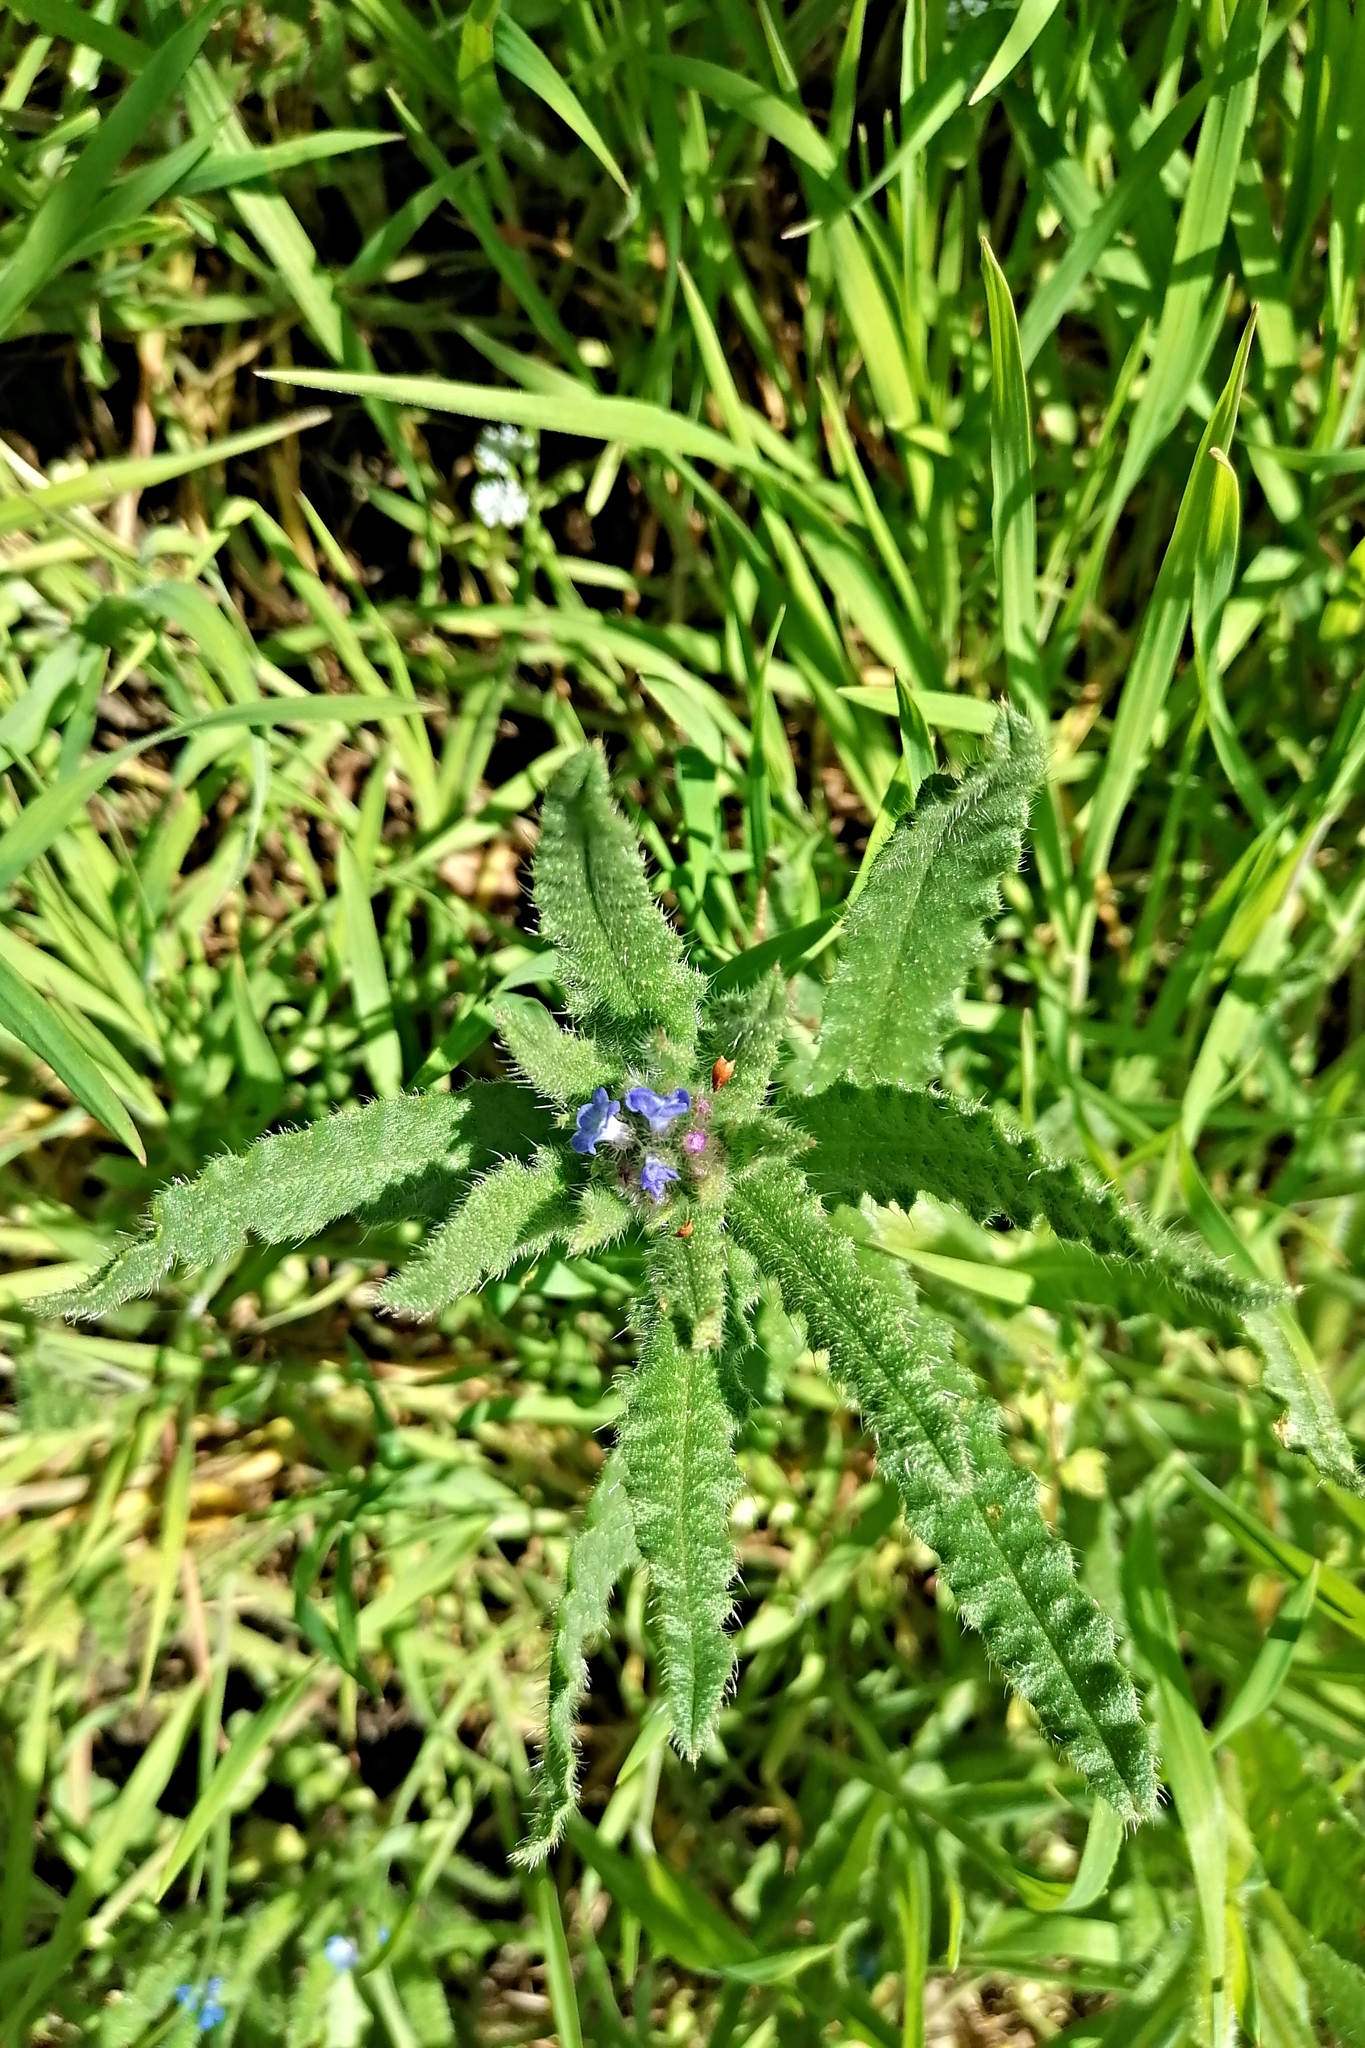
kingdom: Plantae
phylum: Tracheophyta
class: Magnoliopsida
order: Boraginales
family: Boraginaceae
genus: Lycopsis
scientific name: Lycopsis arvensis
